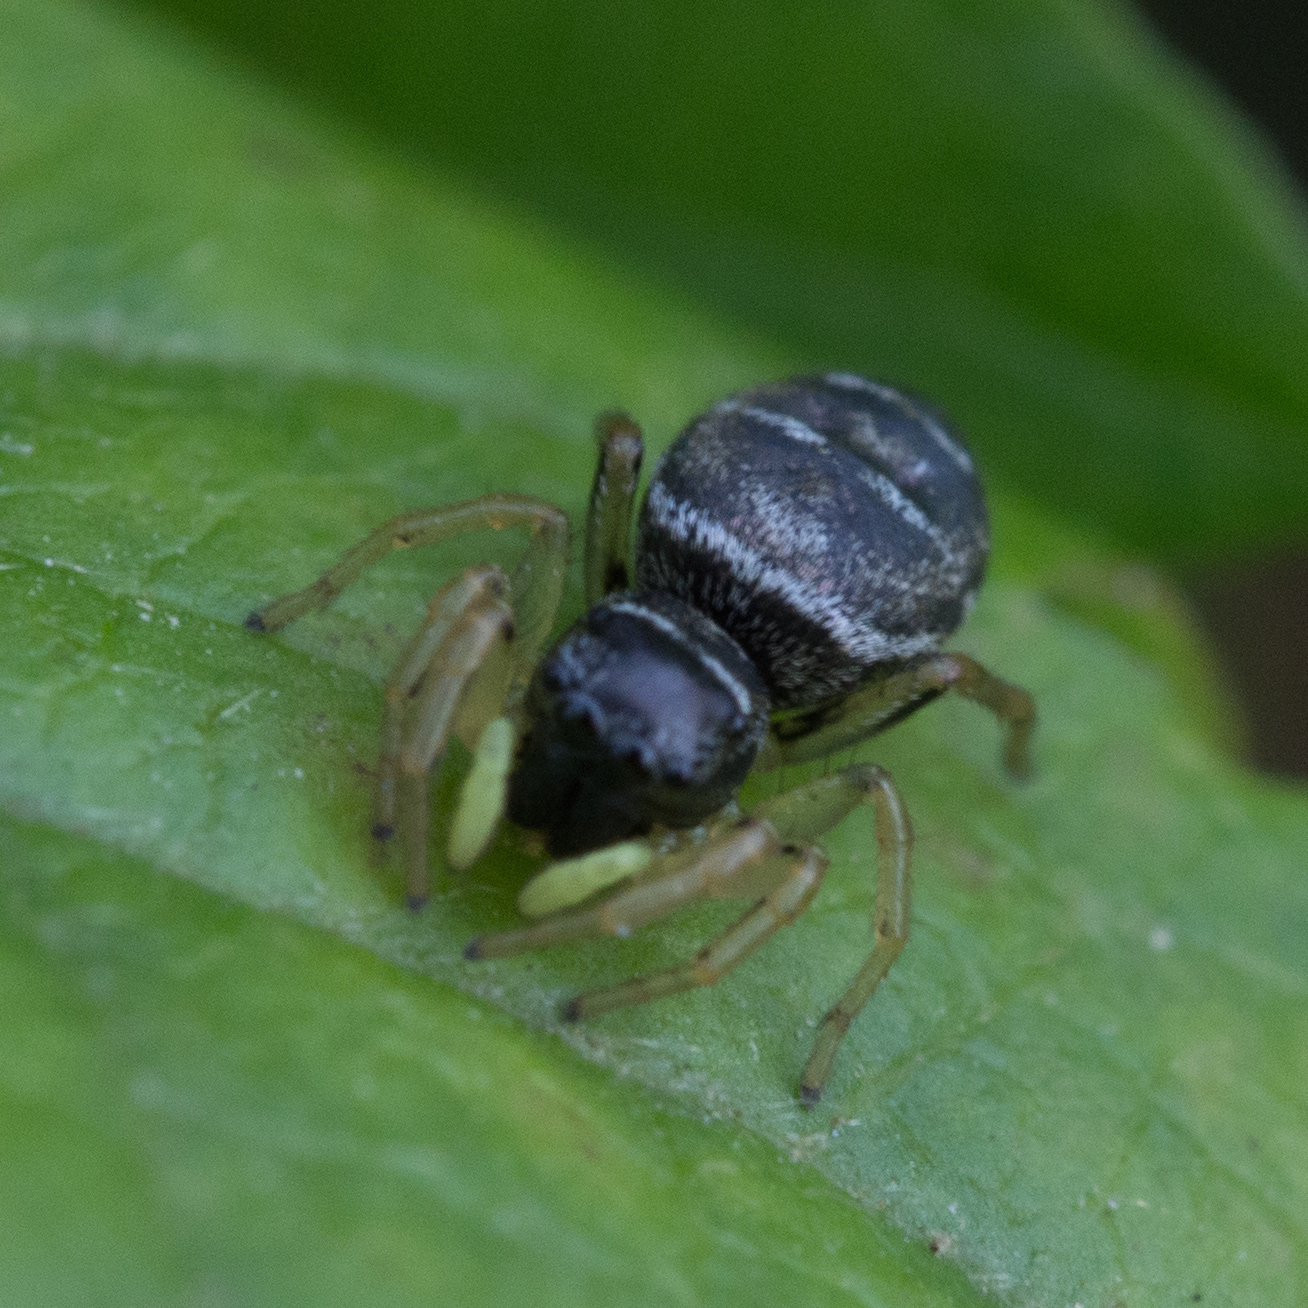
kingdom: Animalia
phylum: Arthropoda
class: Arachnida
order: Araneae
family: Salticidae
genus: Heliophanus
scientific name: Heliophanus
